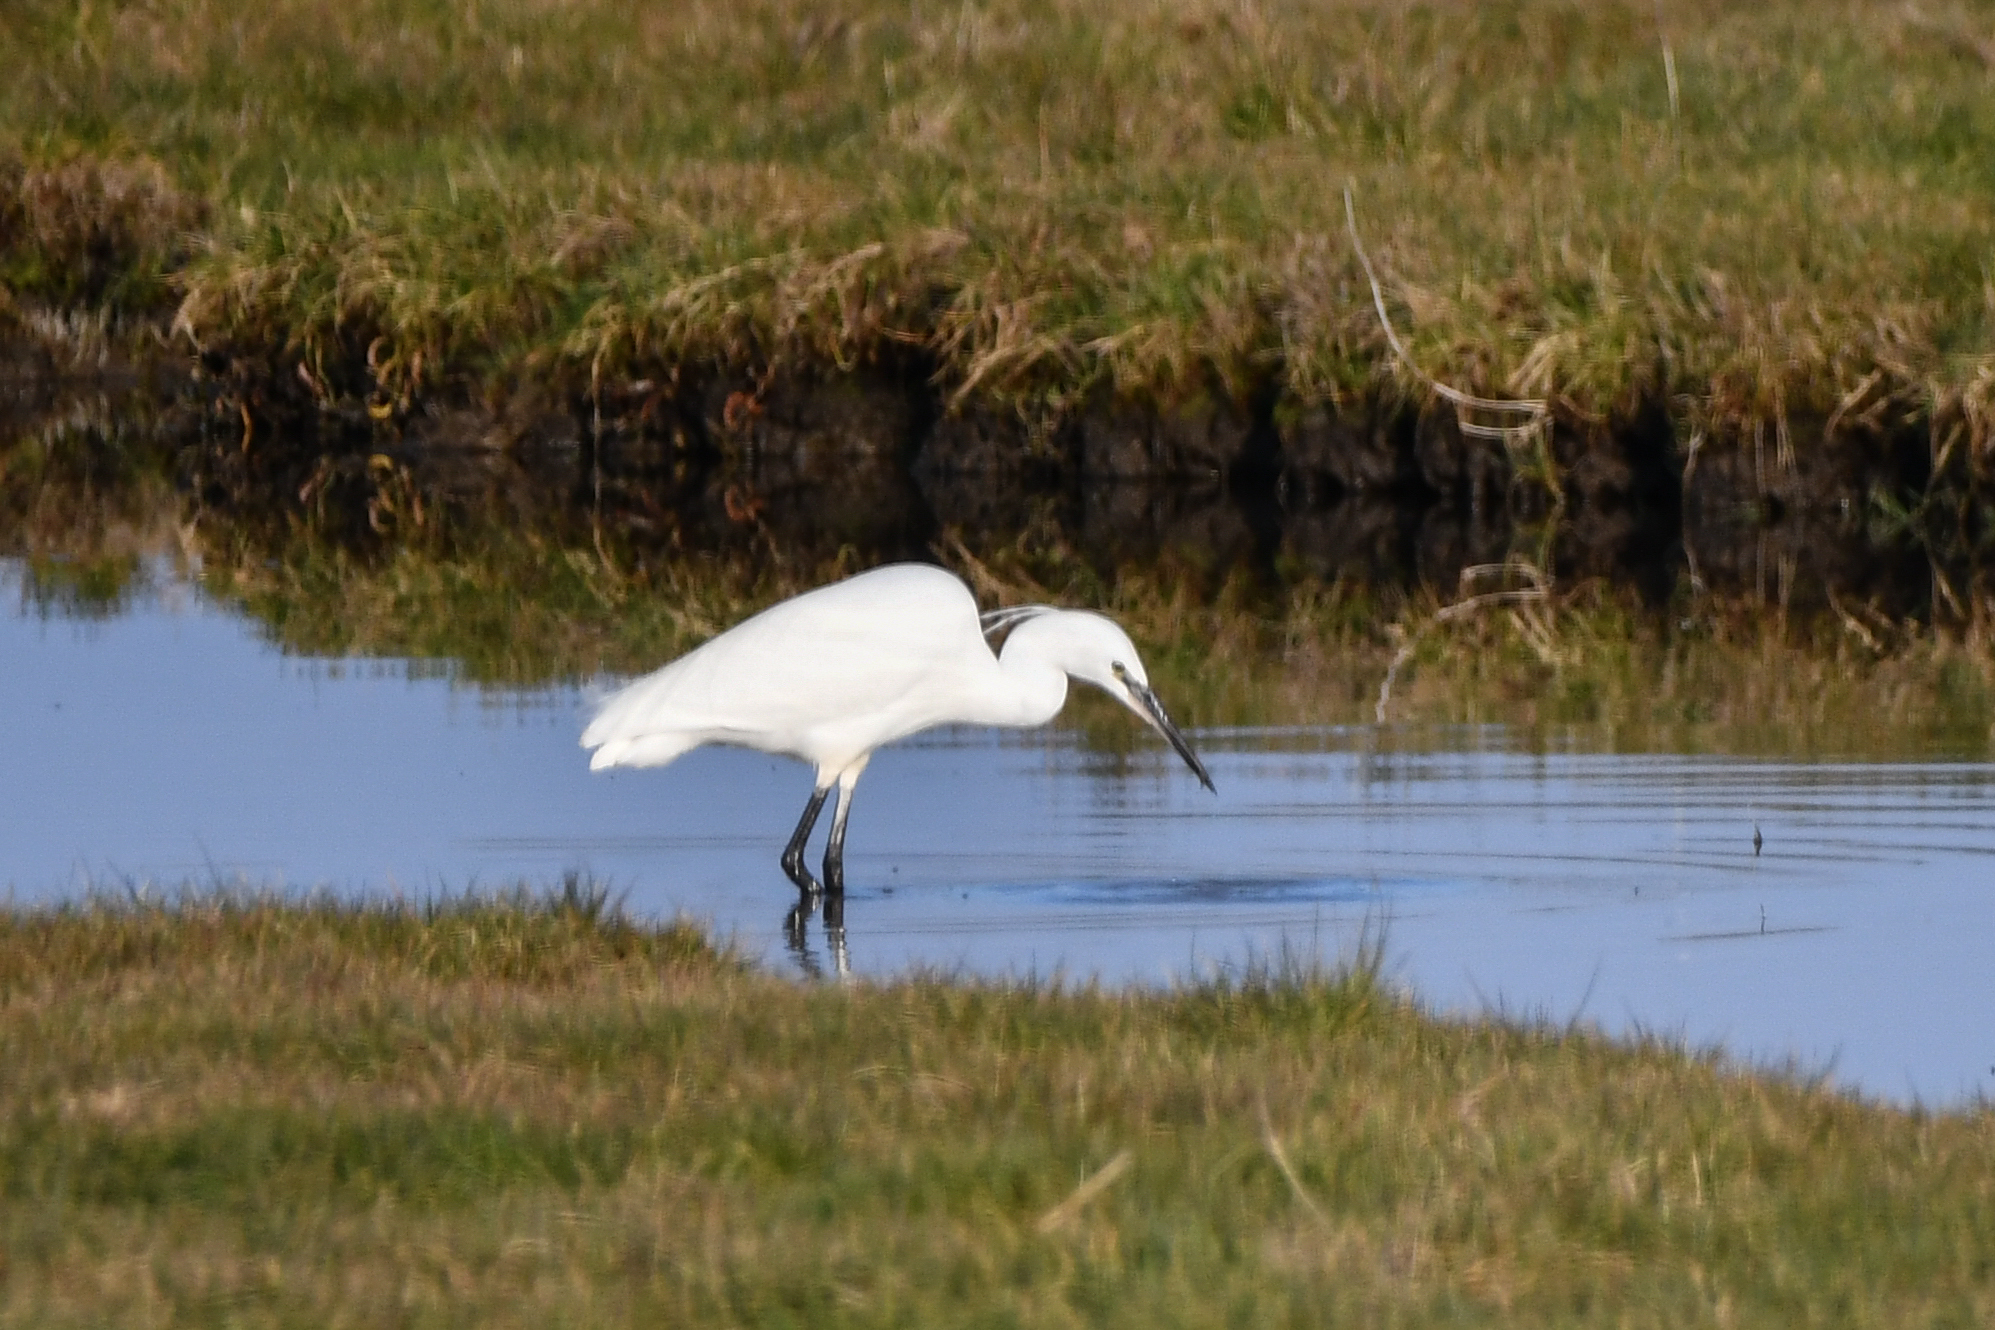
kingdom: Animalia
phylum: Chordata
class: Aves
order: Pelecaniformes
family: Ardeidae
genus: Egretta
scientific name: Egretta garzetta
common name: Little egret
